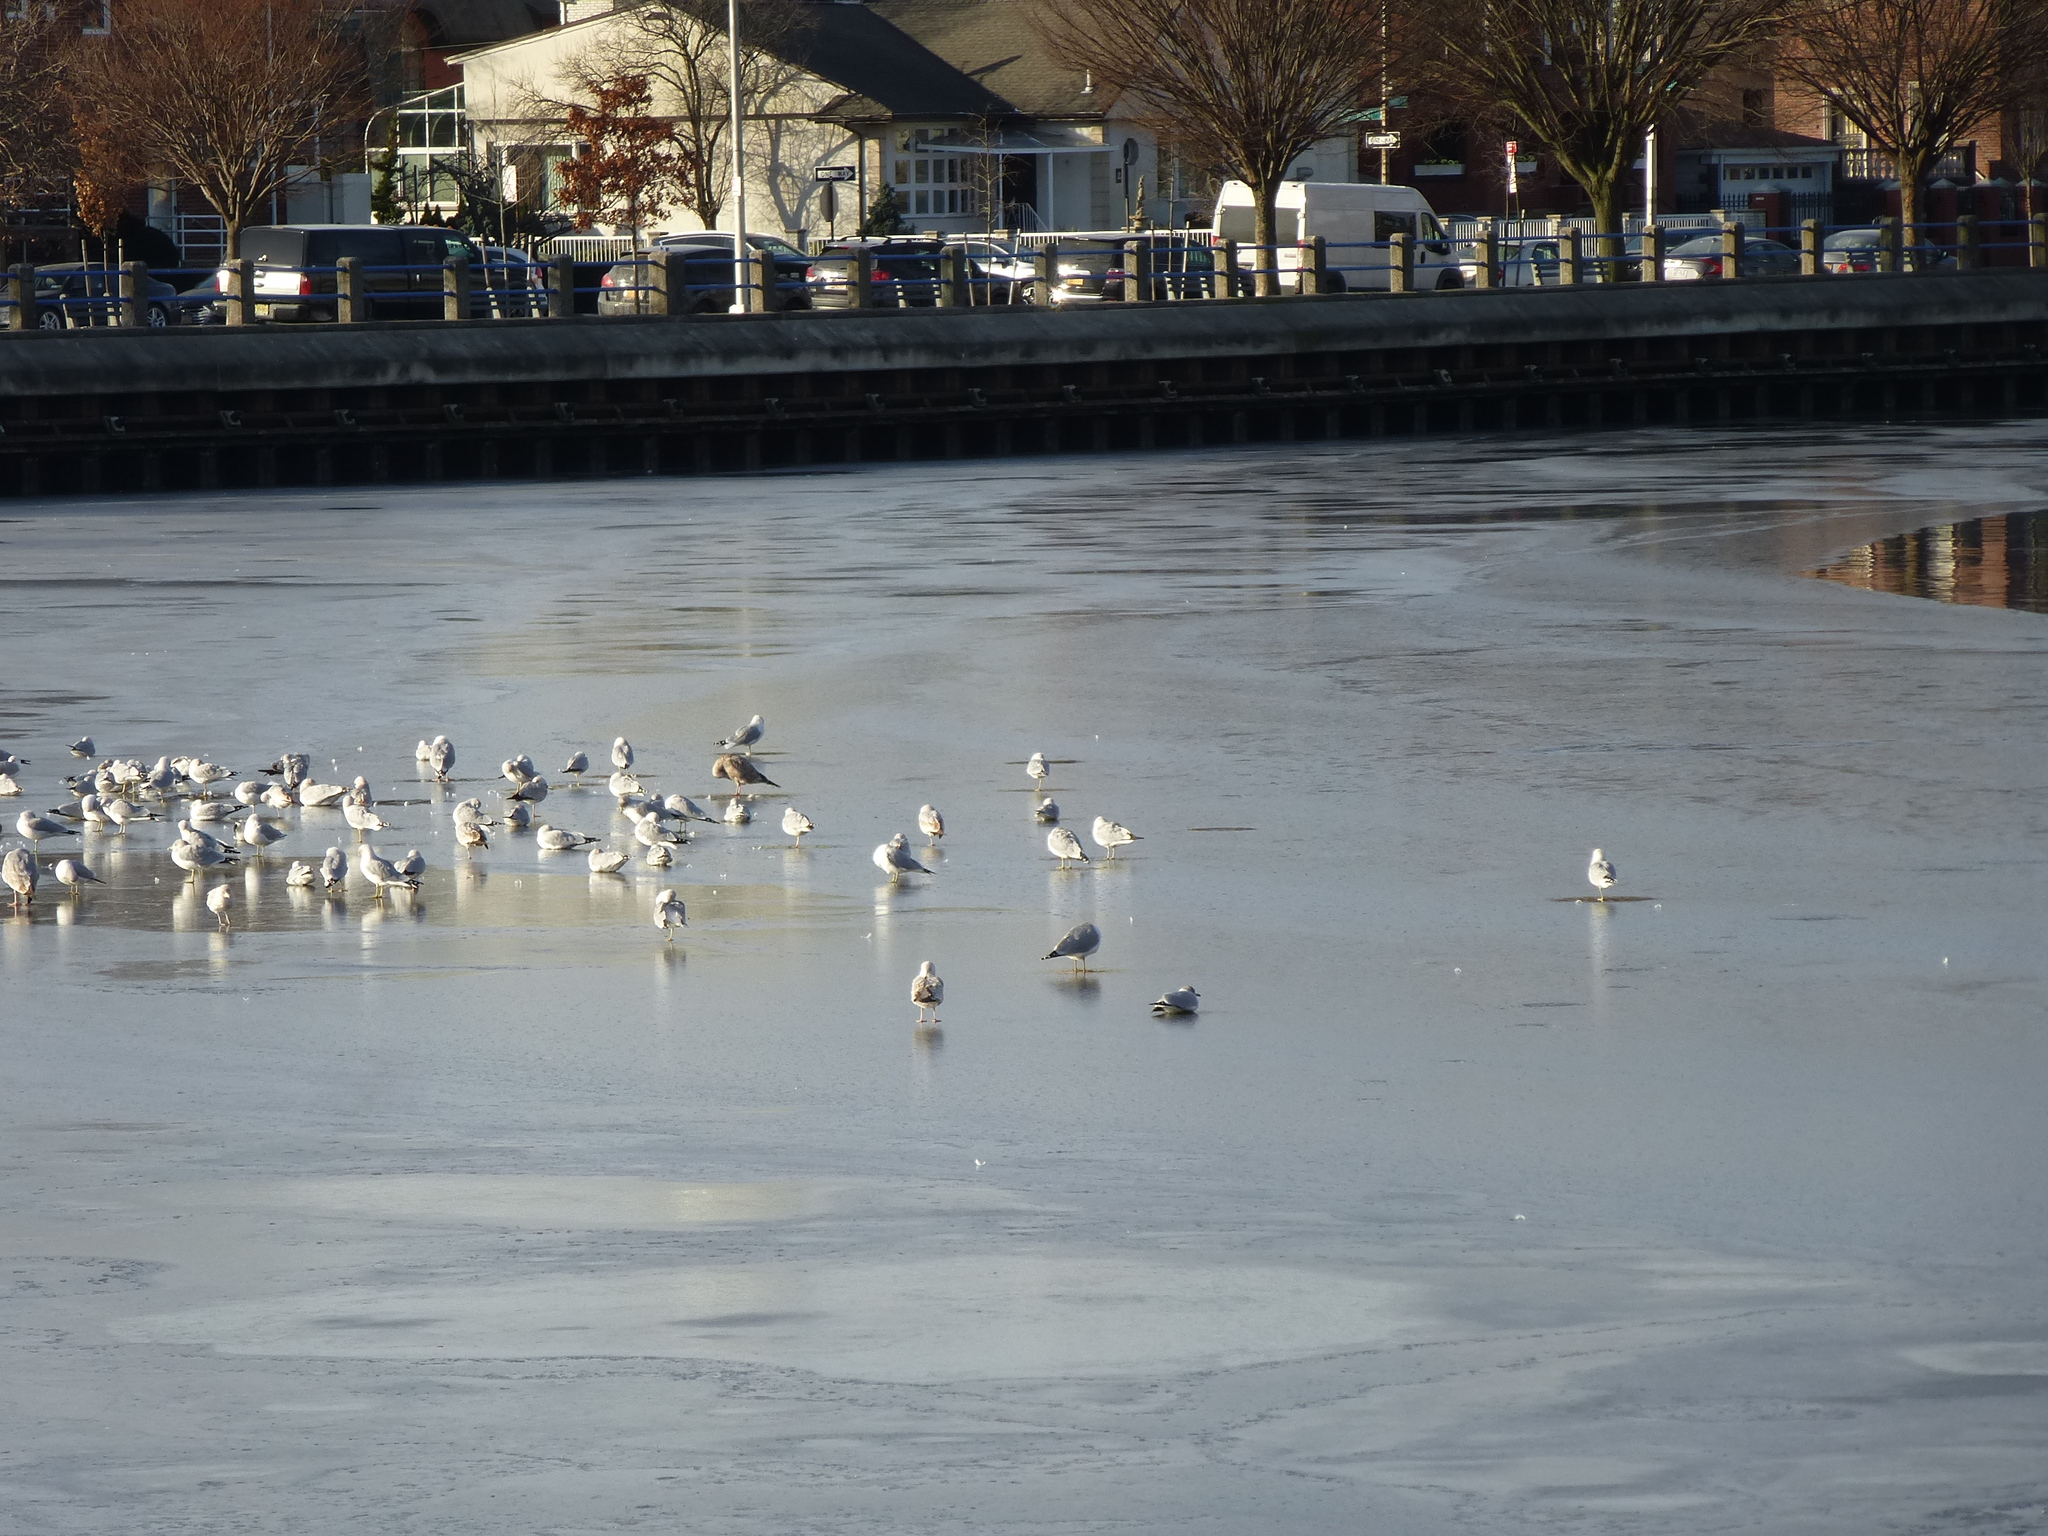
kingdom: Animalia
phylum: Chordata
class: Aves
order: Charadriiformes
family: Laridae
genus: Larus
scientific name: Larus delawarensis
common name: Ring-billed gull
